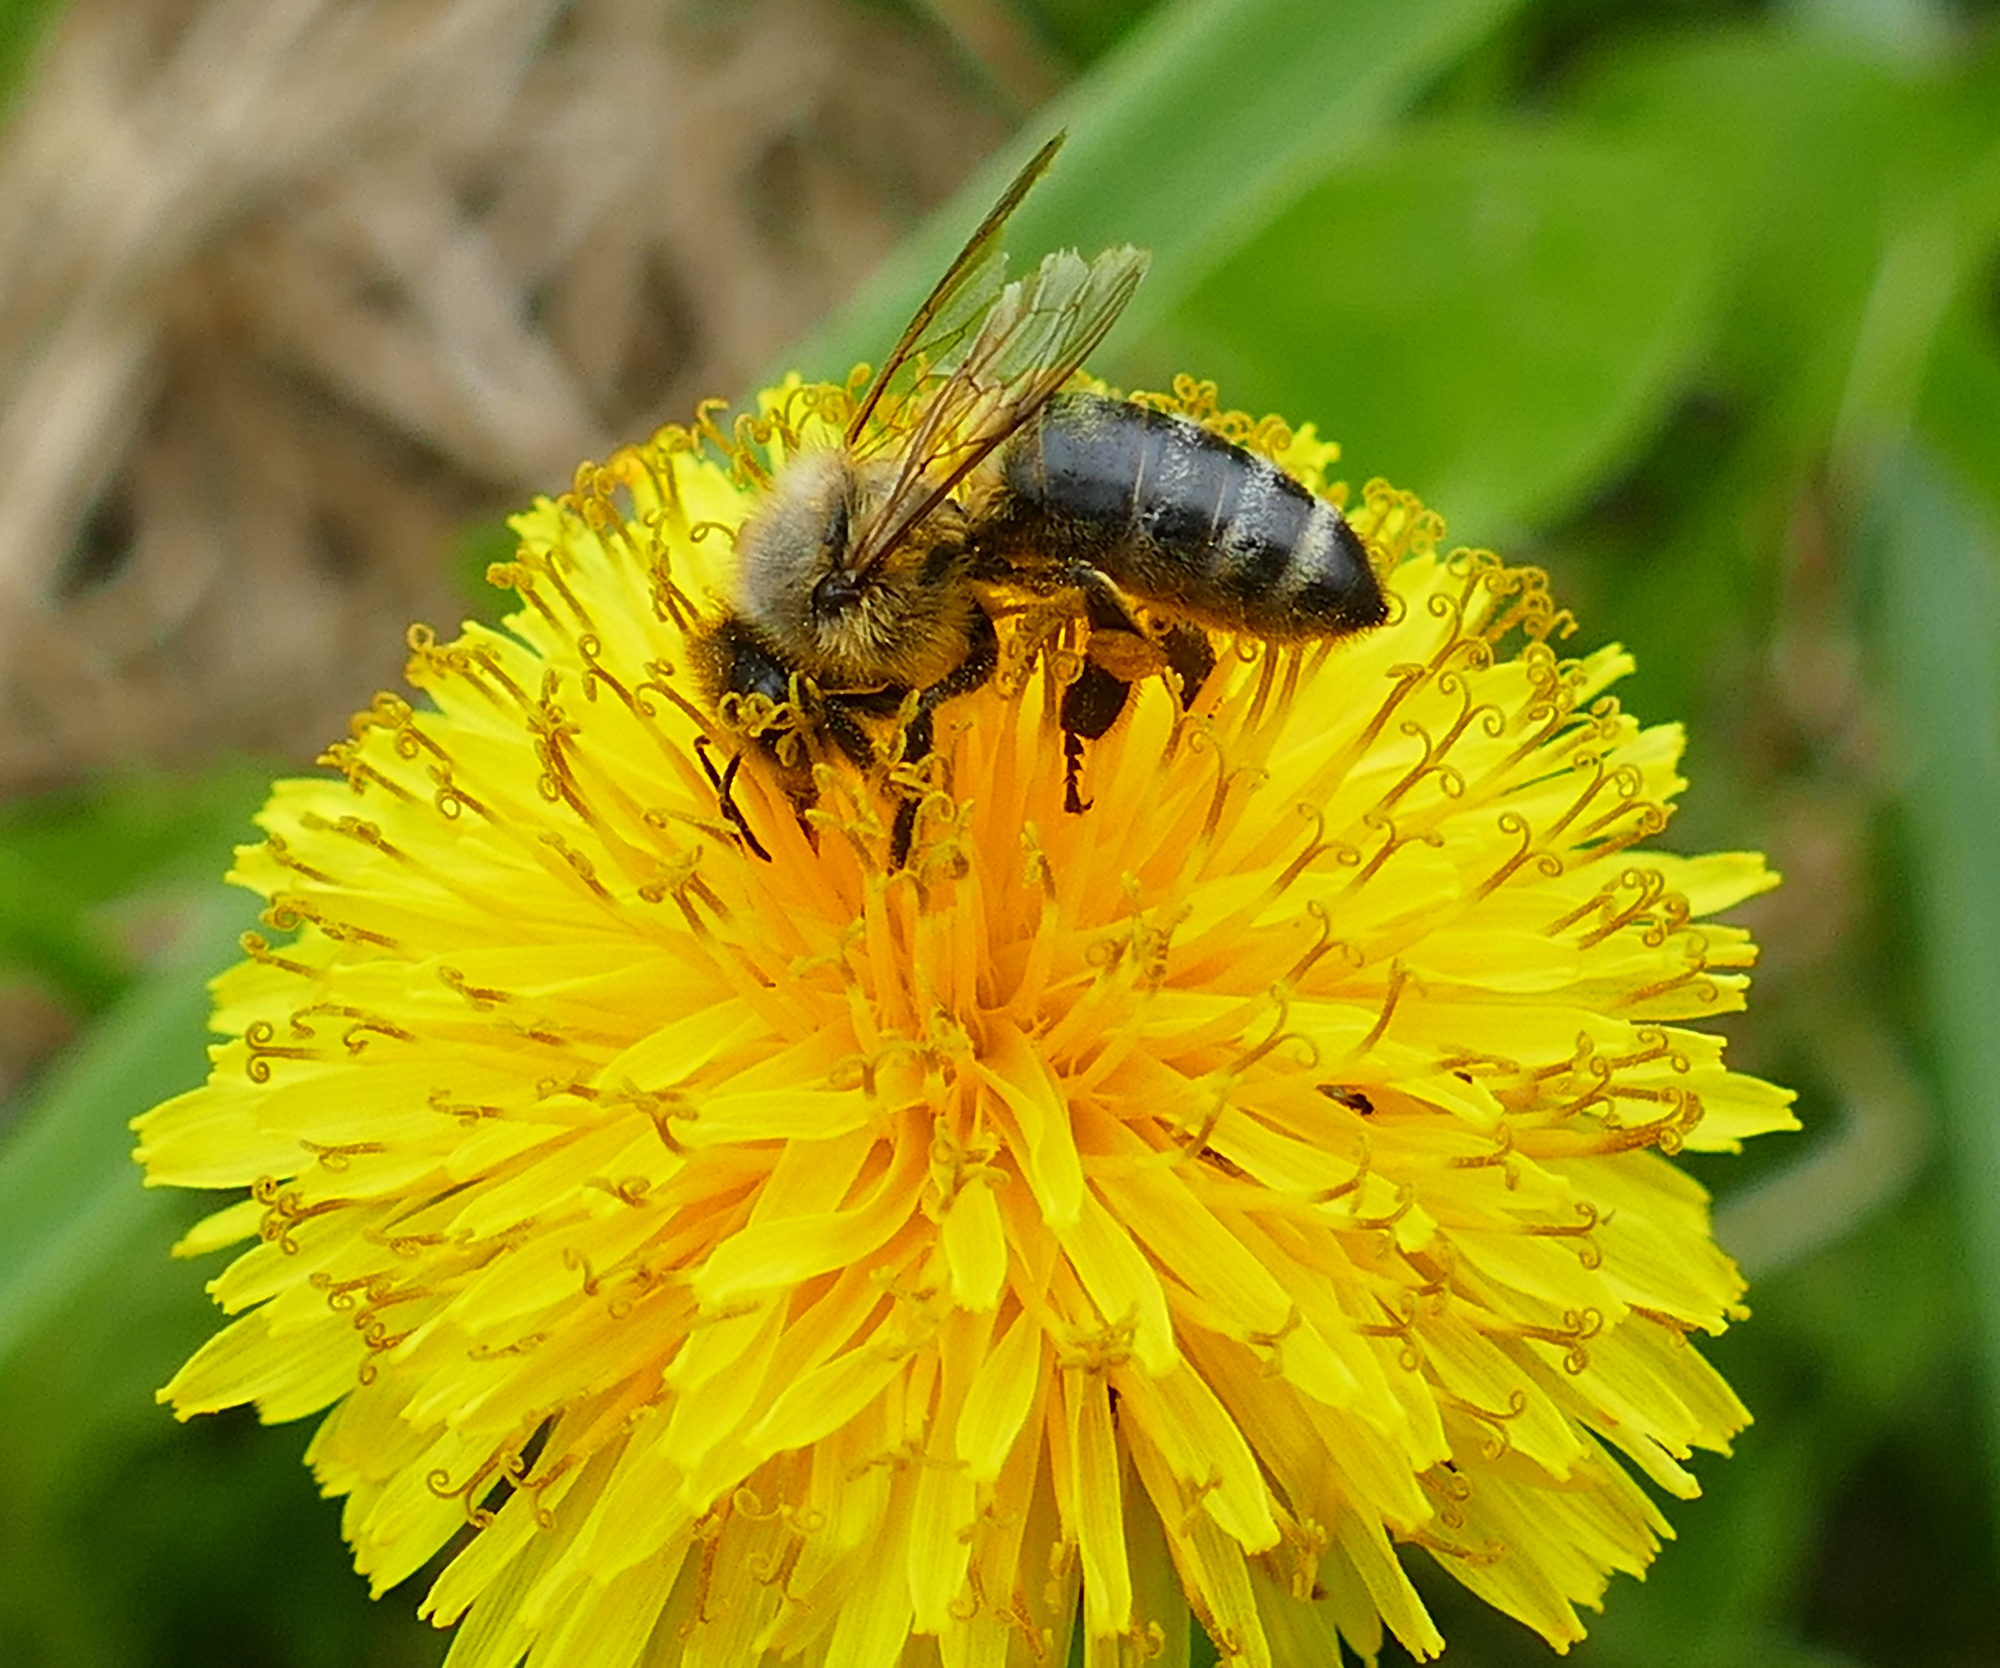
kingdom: Animalia
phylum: Arthropoda
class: Insecta
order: Hymenoptera
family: Apidae
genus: Apis
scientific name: Apis mellifera
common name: Honey bee
